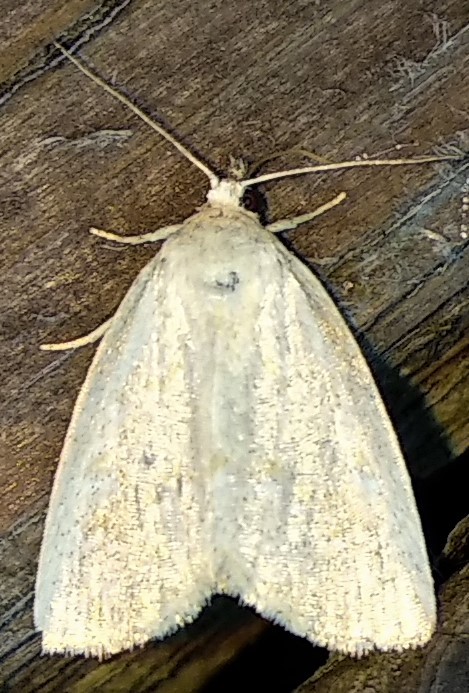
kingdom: Animalia
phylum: Arthropoda
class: Insecta
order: Lepidoptera
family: Noctuidae
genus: Protodeltote
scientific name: Protodeltote albidula
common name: Pale glyph
